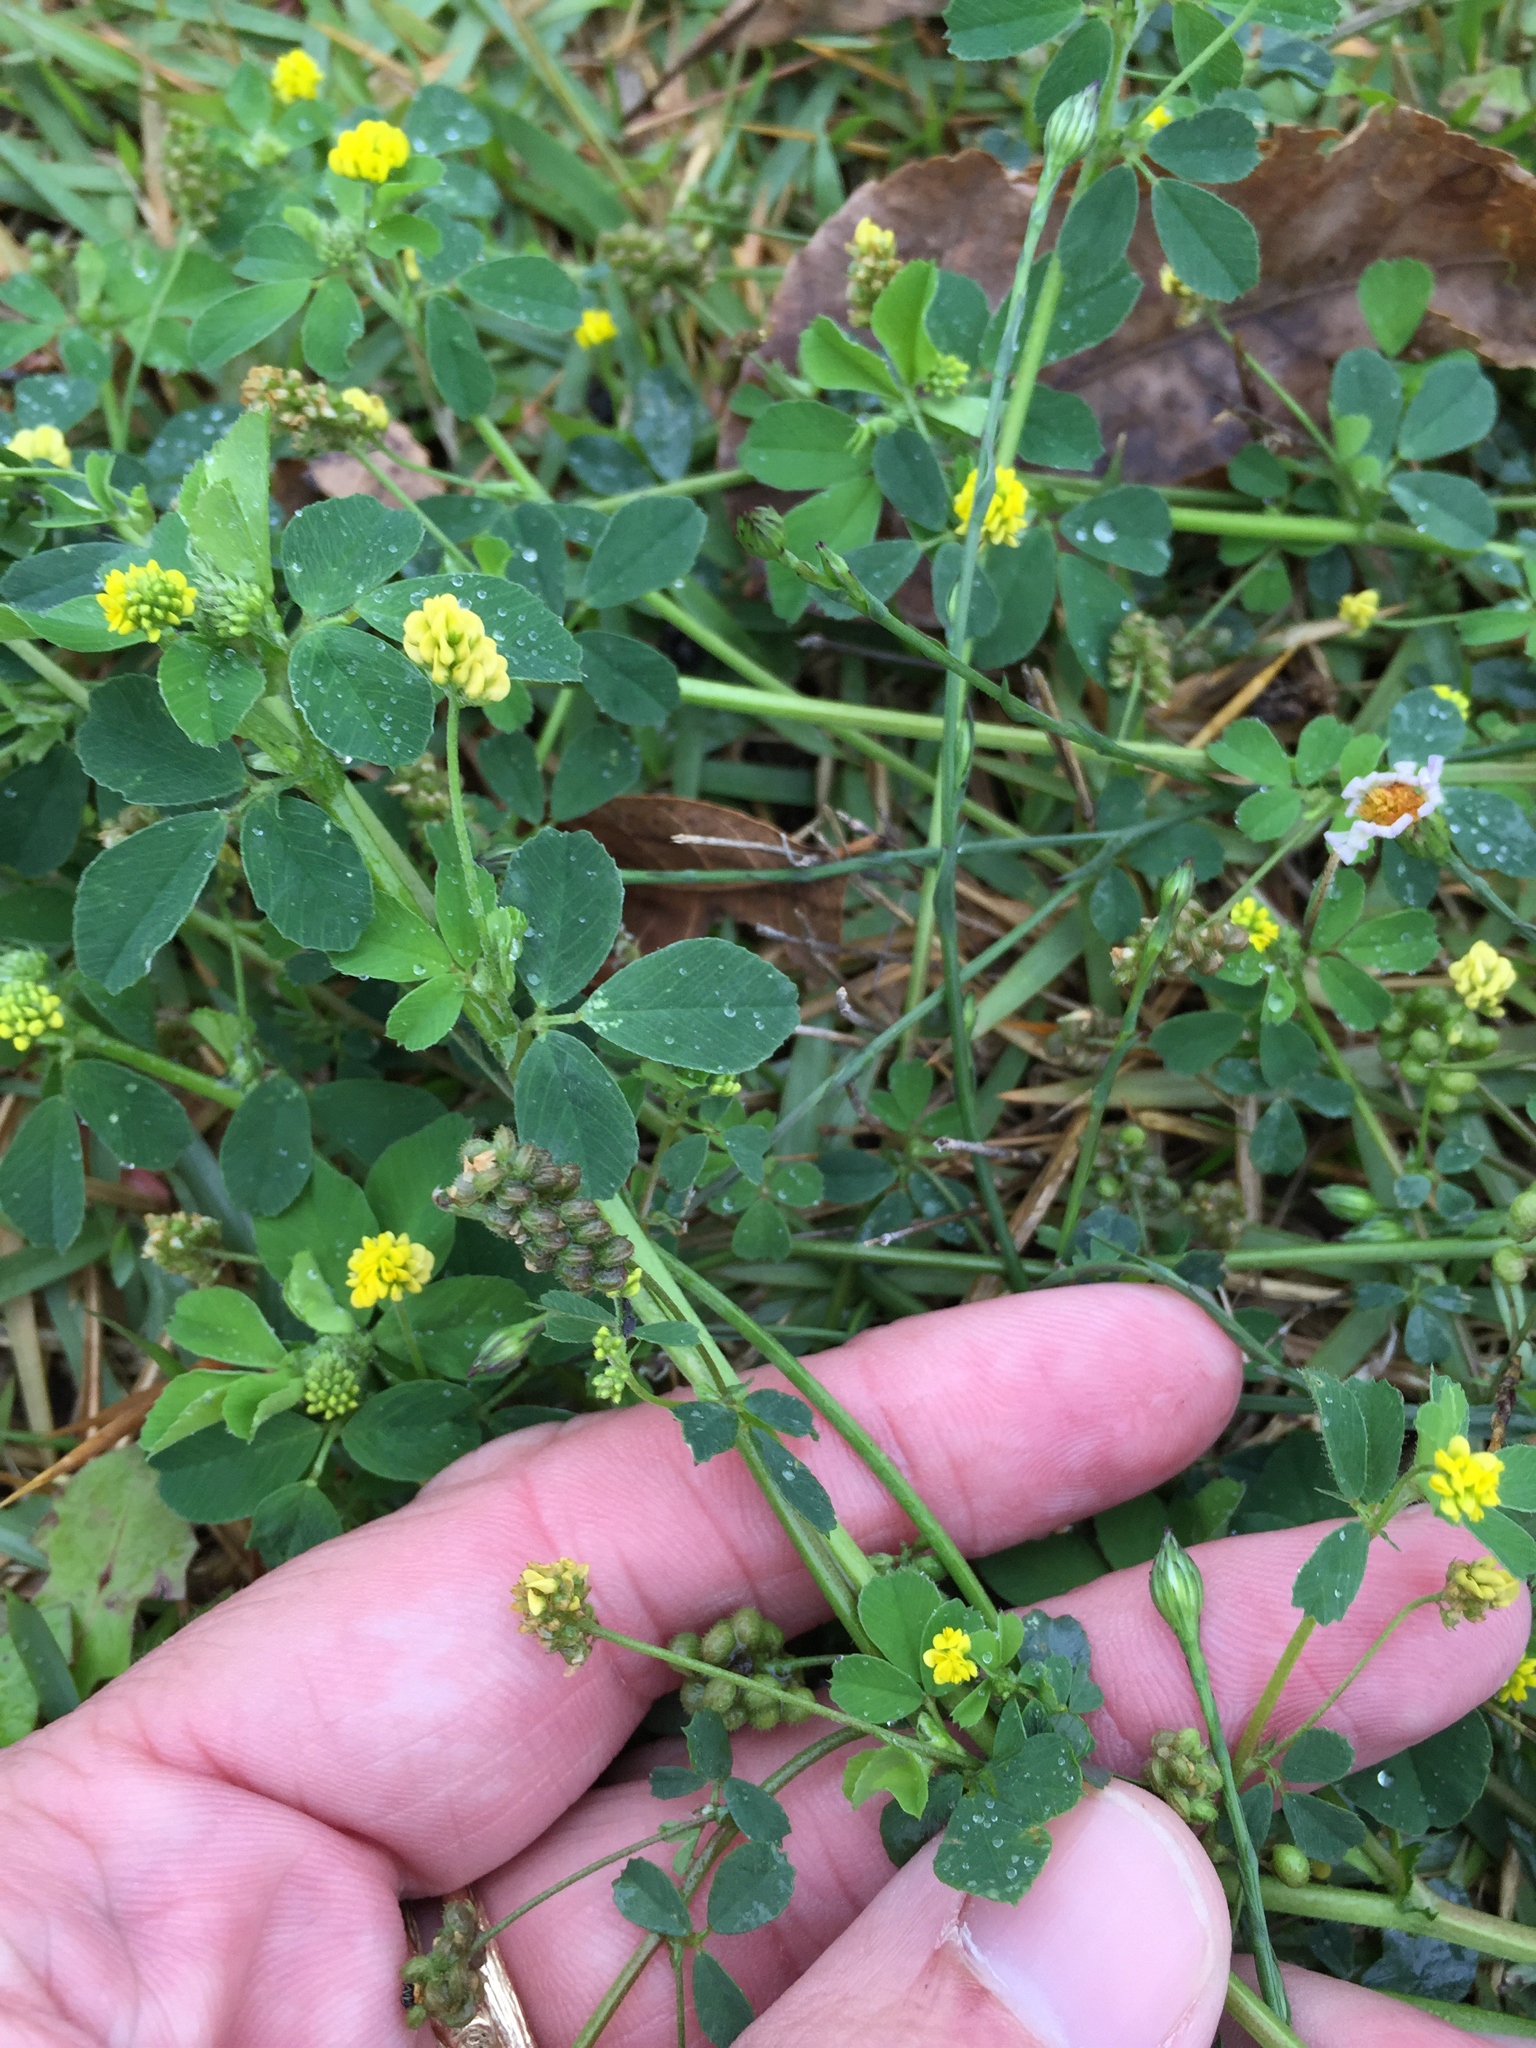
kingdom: Plantae
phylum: Tracheophyta
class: Magnoliopsida
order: Fabales
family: Fabaceae
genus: Medicago
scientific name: Medicago lupulina
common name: Black medick
